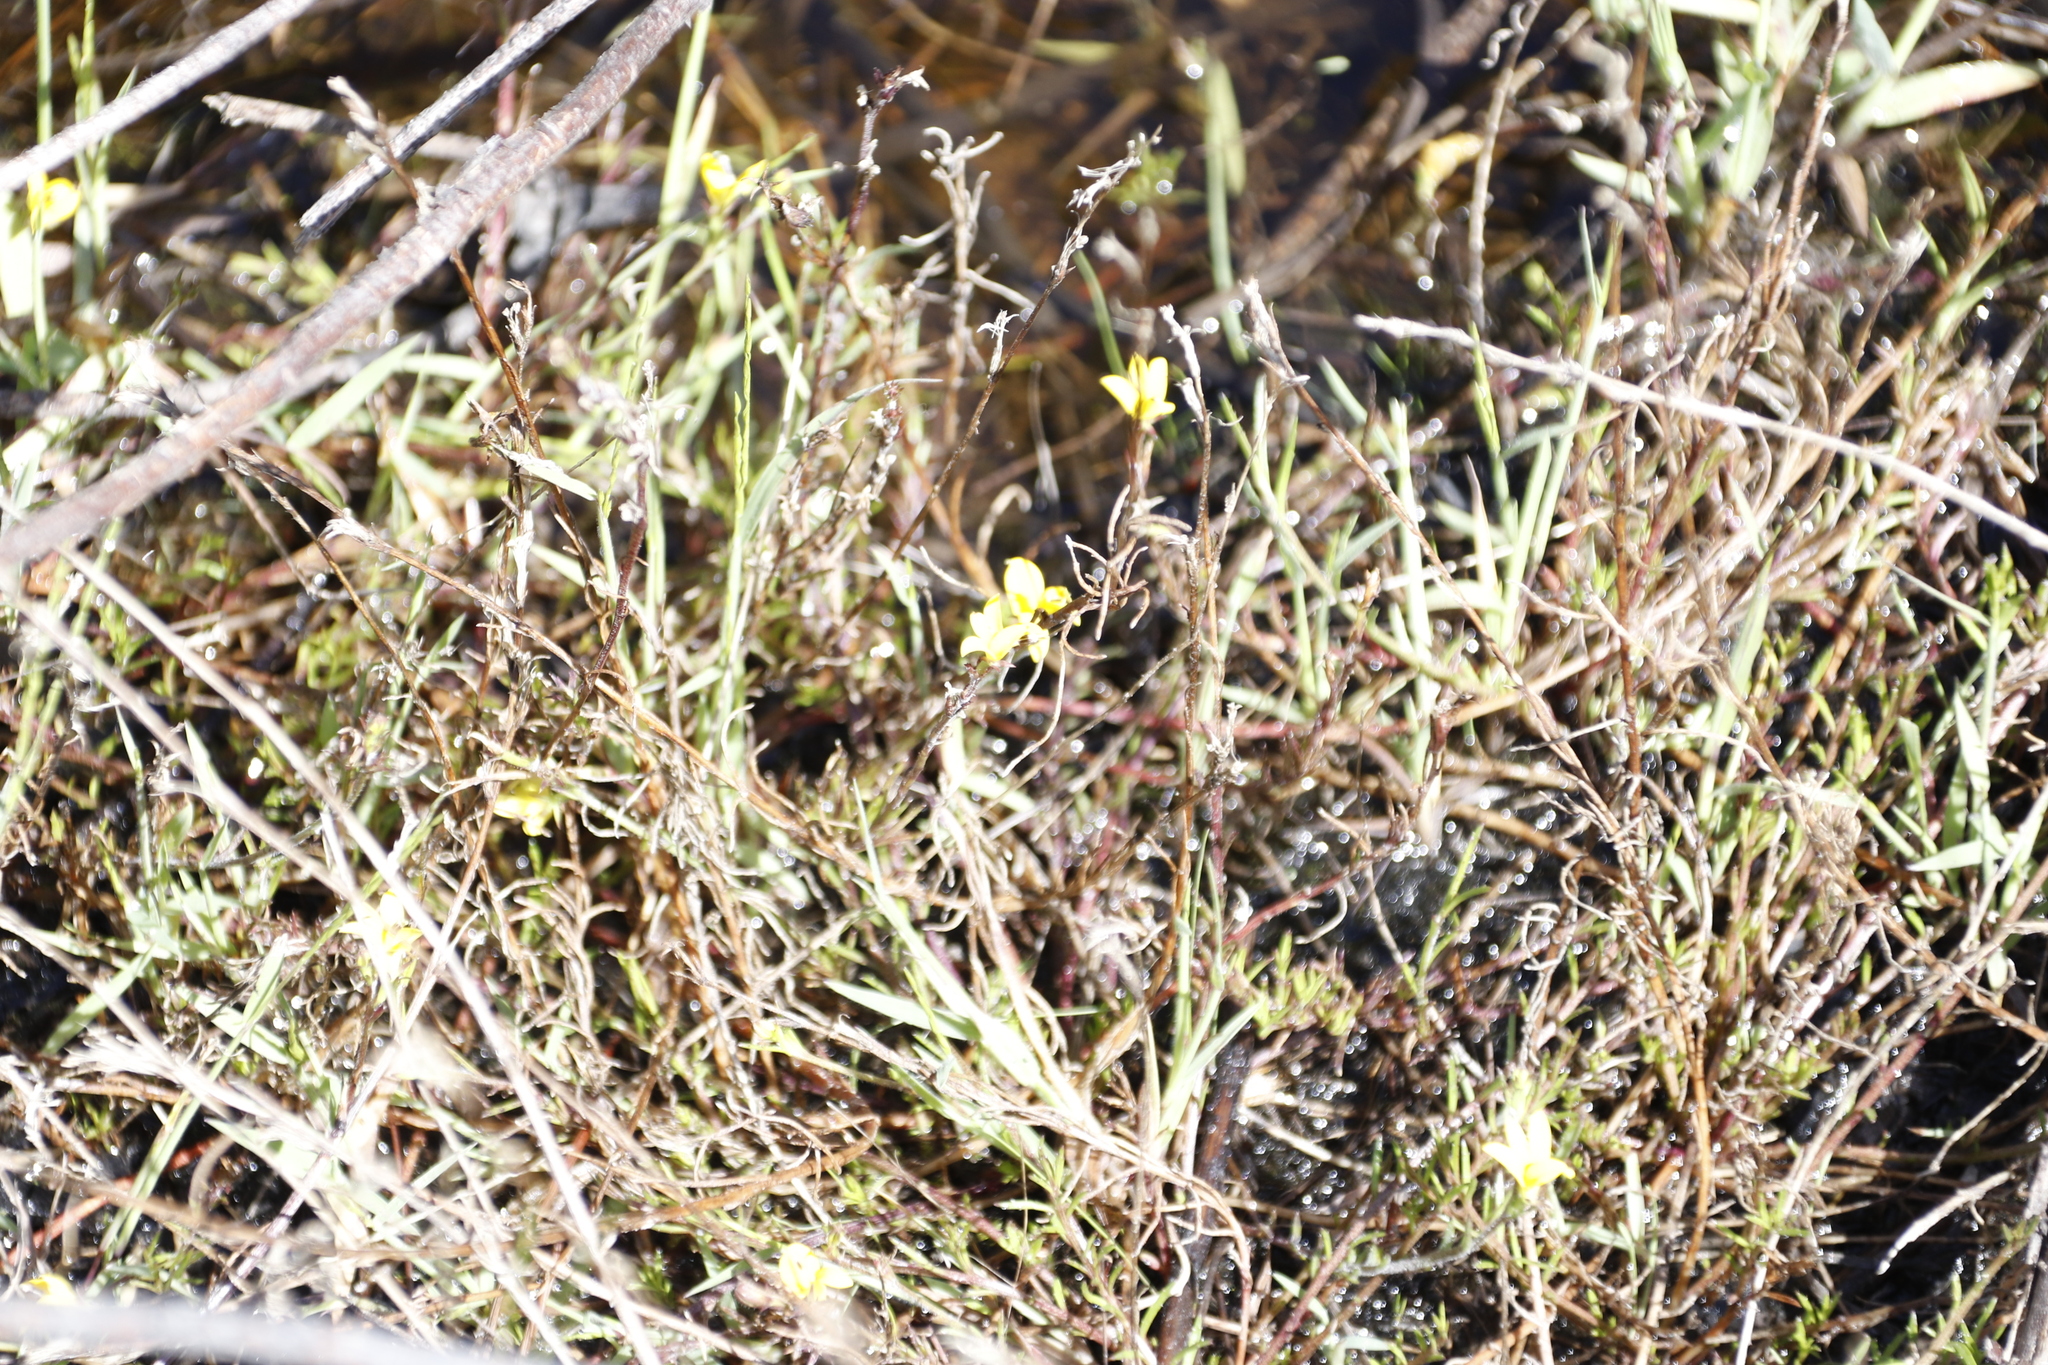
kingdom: Plantae
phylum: Tracheophyta
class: Magnoliopsida
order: Asterales
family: Campanulaceae
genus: Monopsis
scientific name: Monopsis lutea
